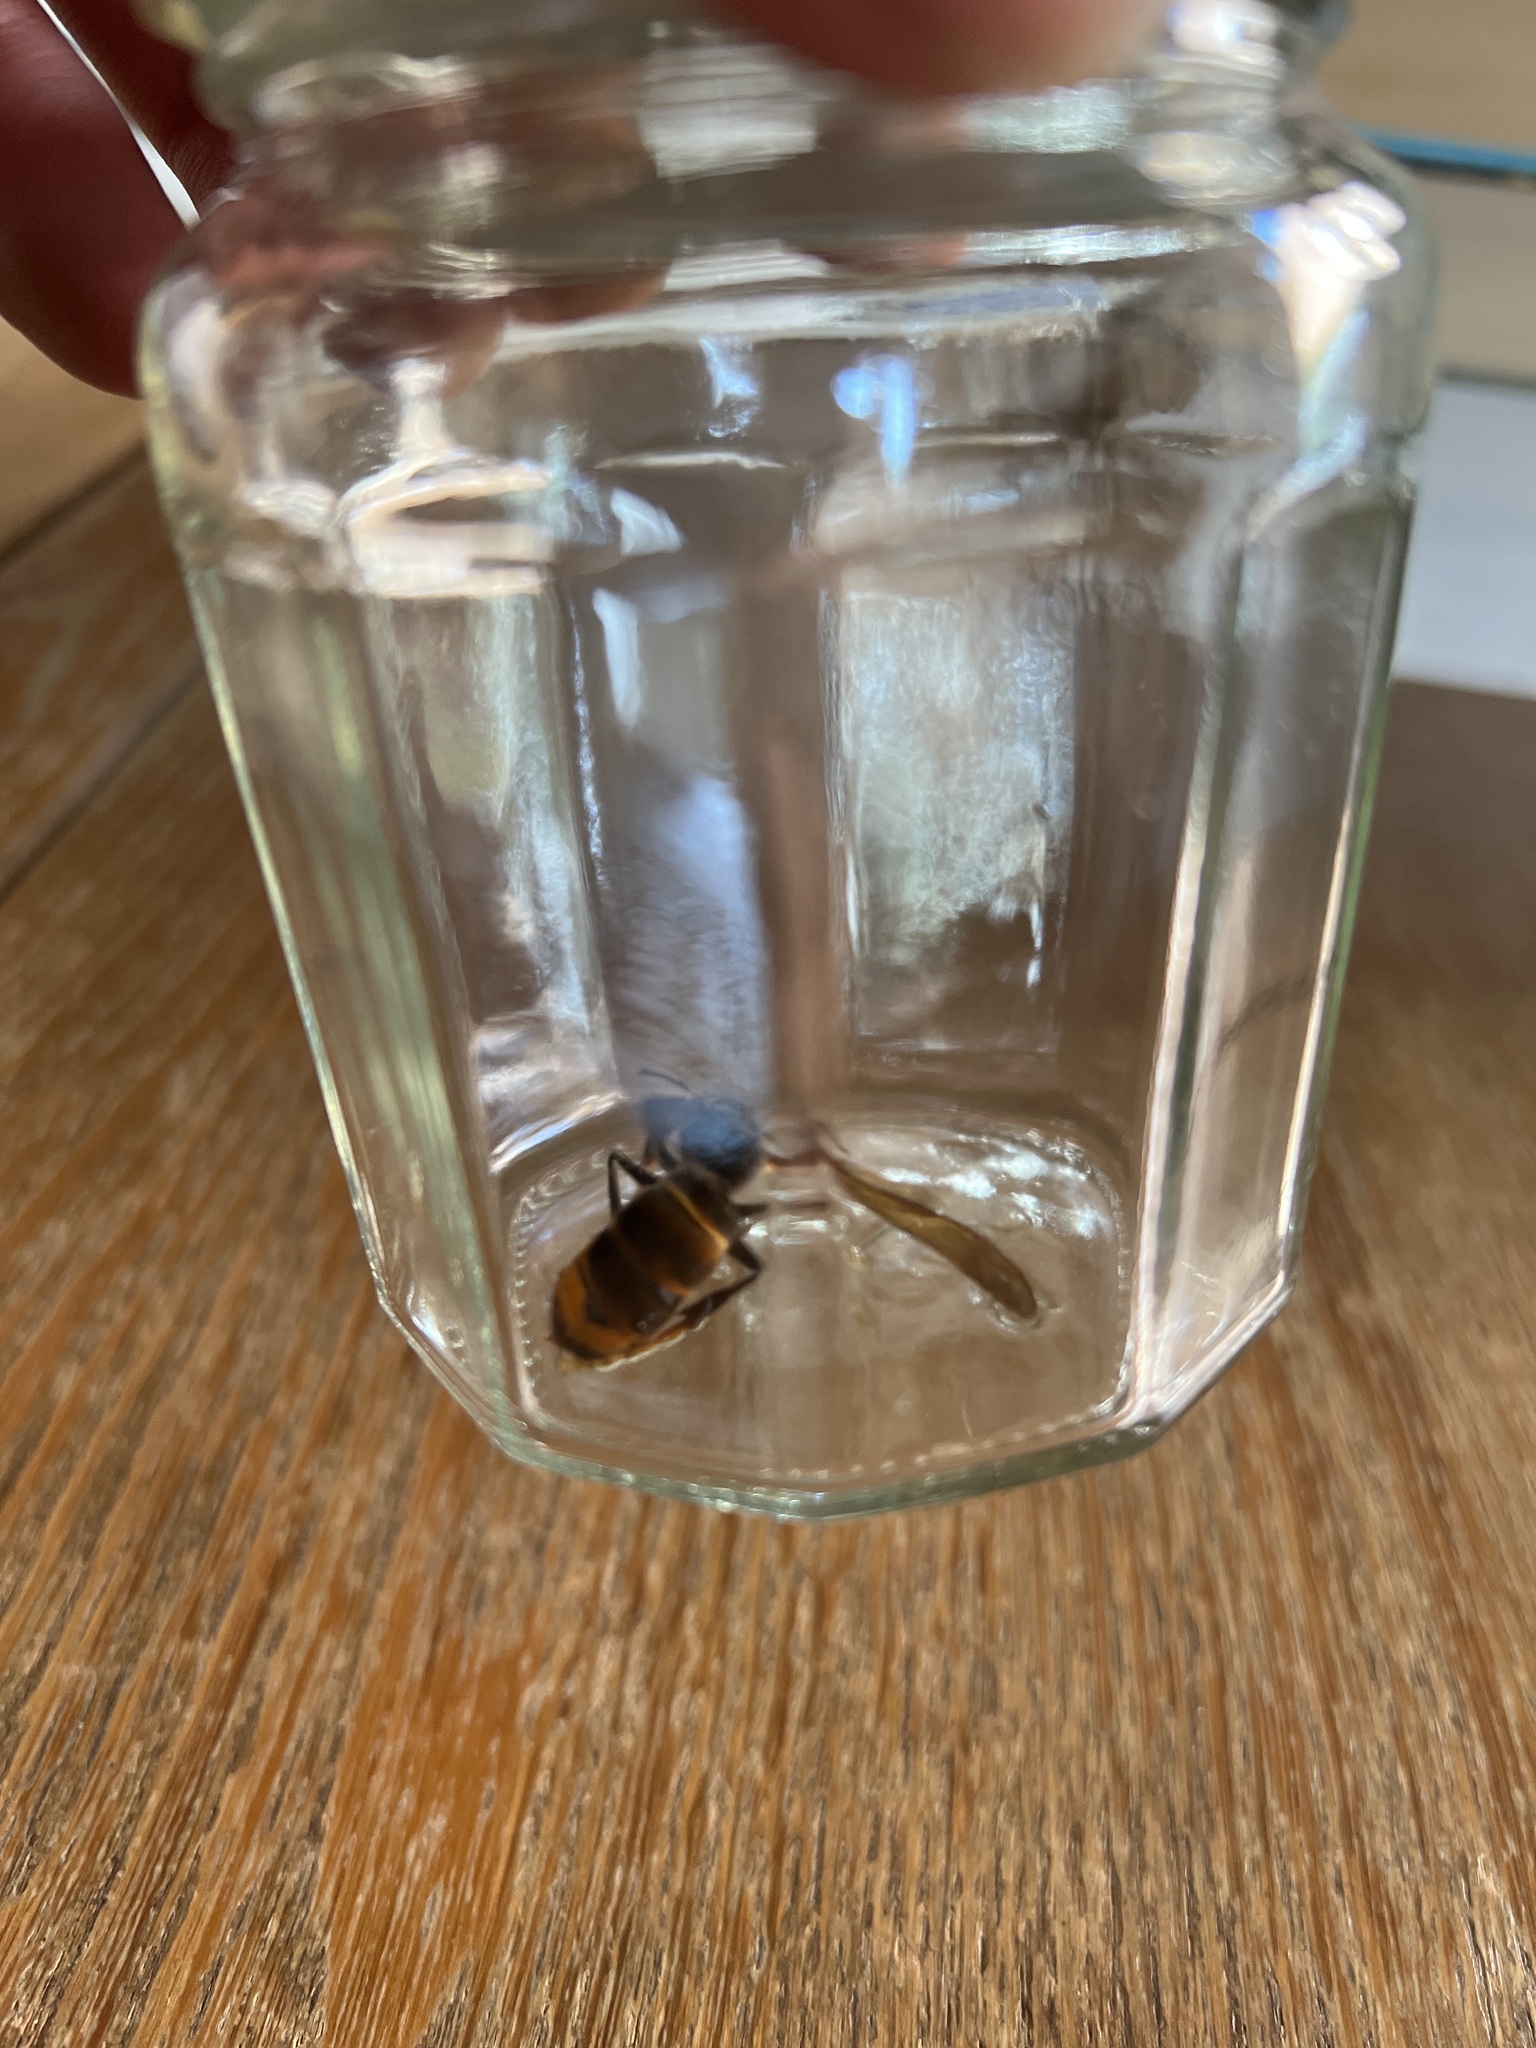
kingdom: Animalia
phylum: Arthropoda
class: Insecta
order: Hymenoptera
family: Vespidae
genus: Vespa
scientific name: Vespa velutina
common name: Asian hornet
